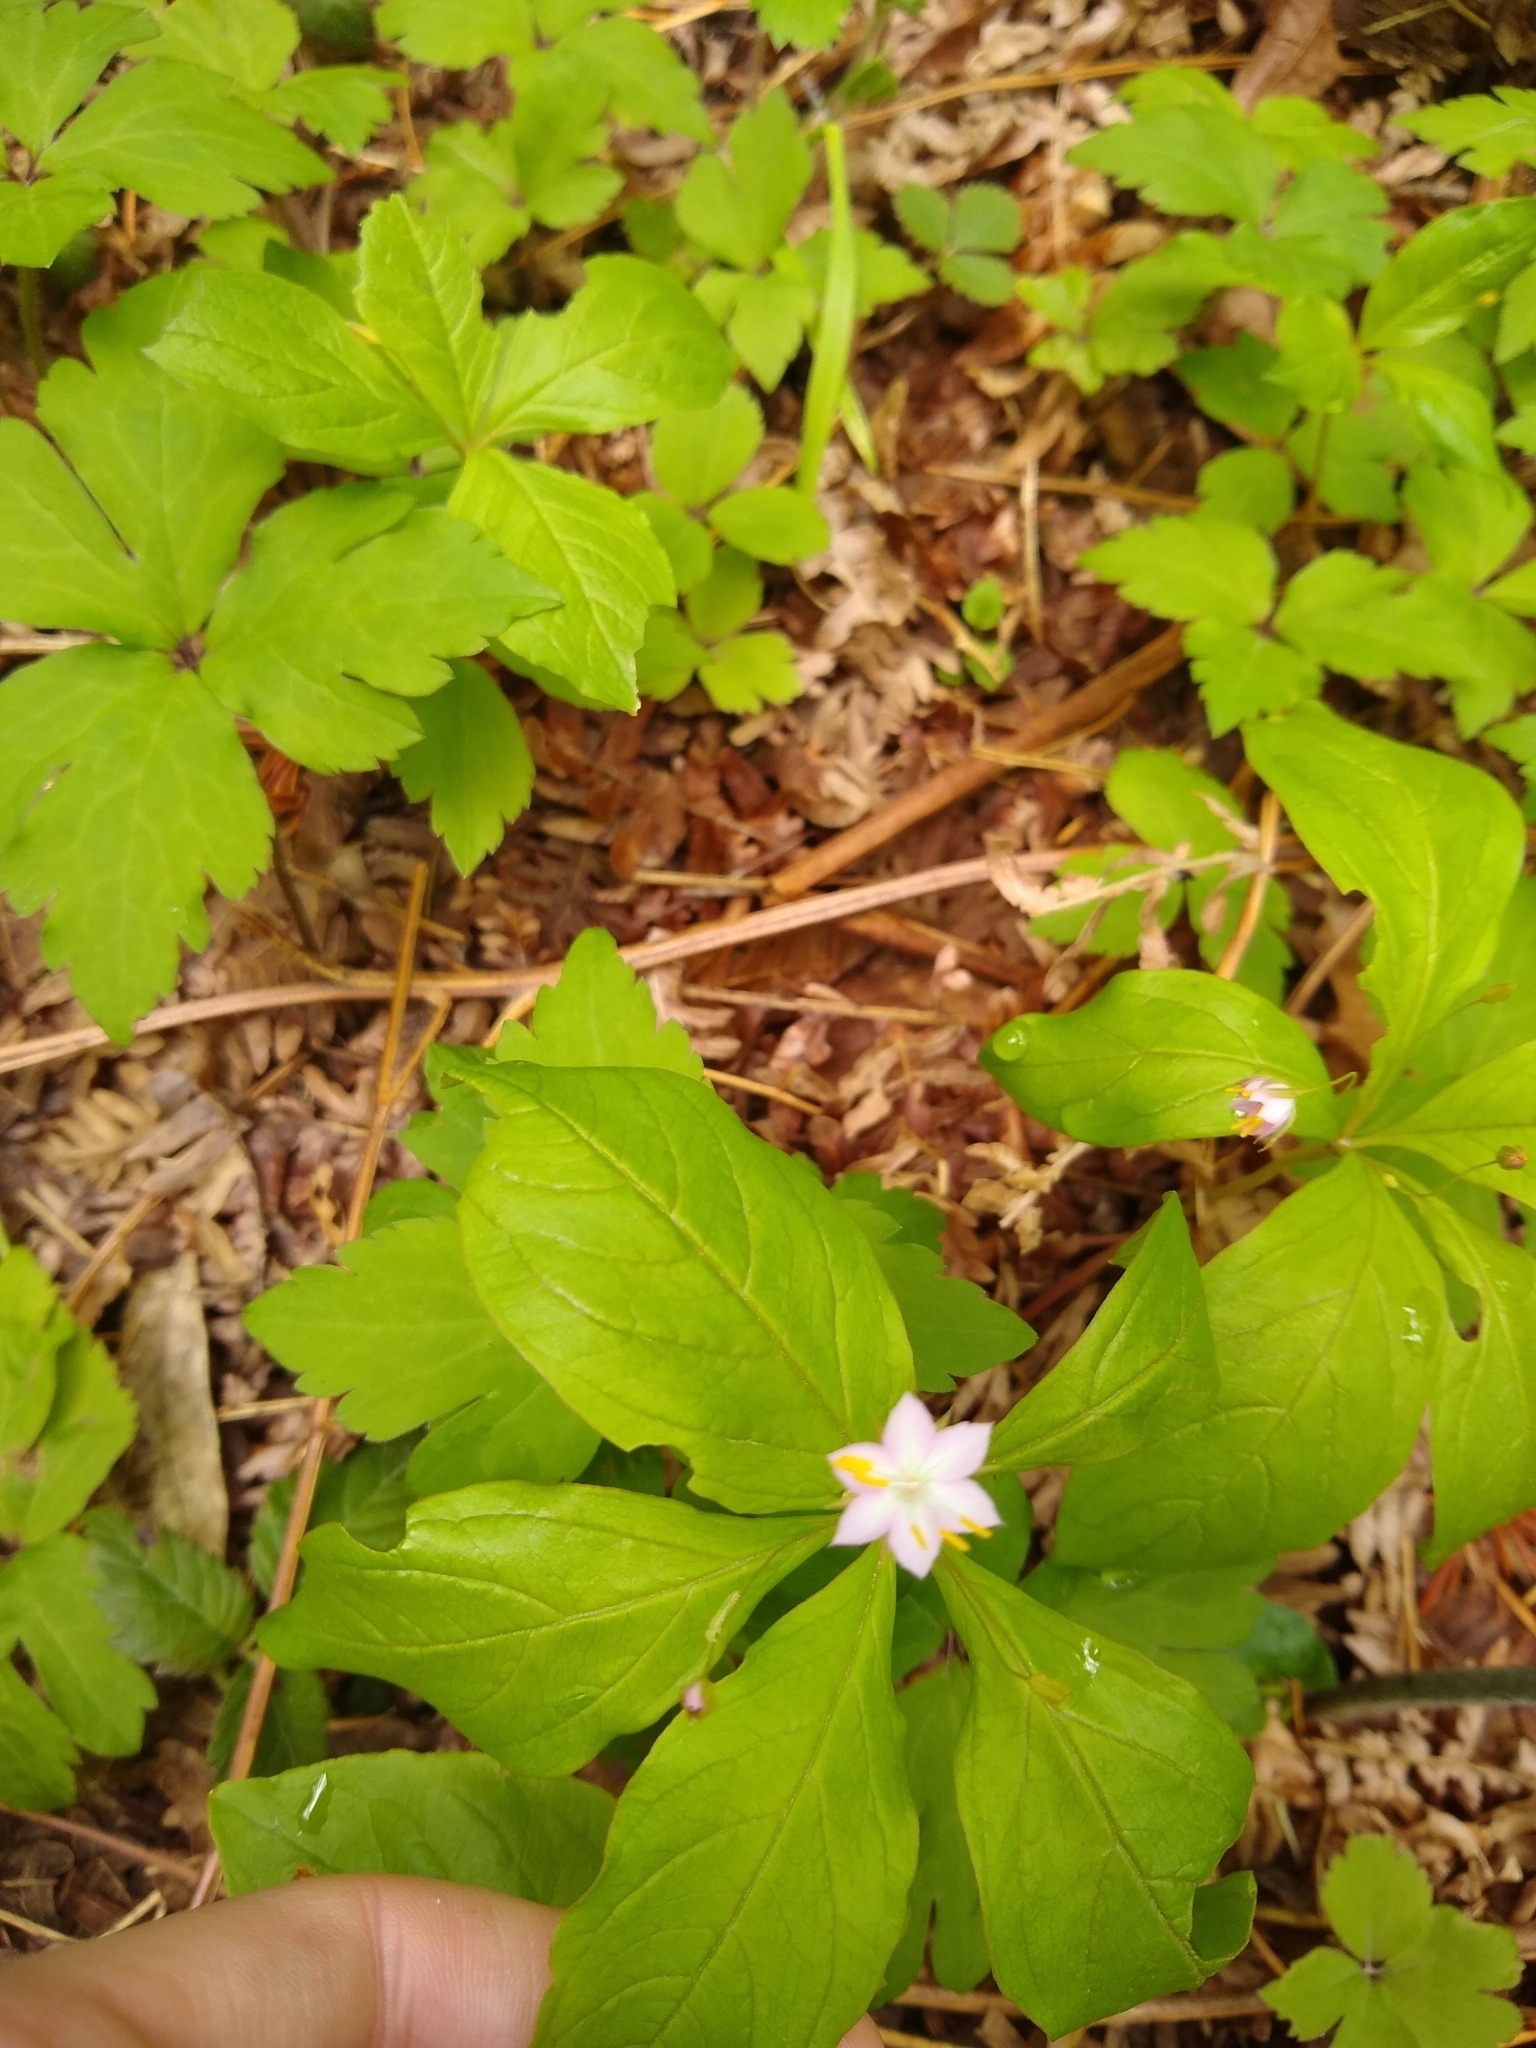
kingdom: Plantae
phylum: Tracheophyta
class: Magnoliopsida
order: Ericales
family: Primulaceae
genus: Lysimachia
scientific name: Lysimachia latifolia
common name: Pacific starflower
